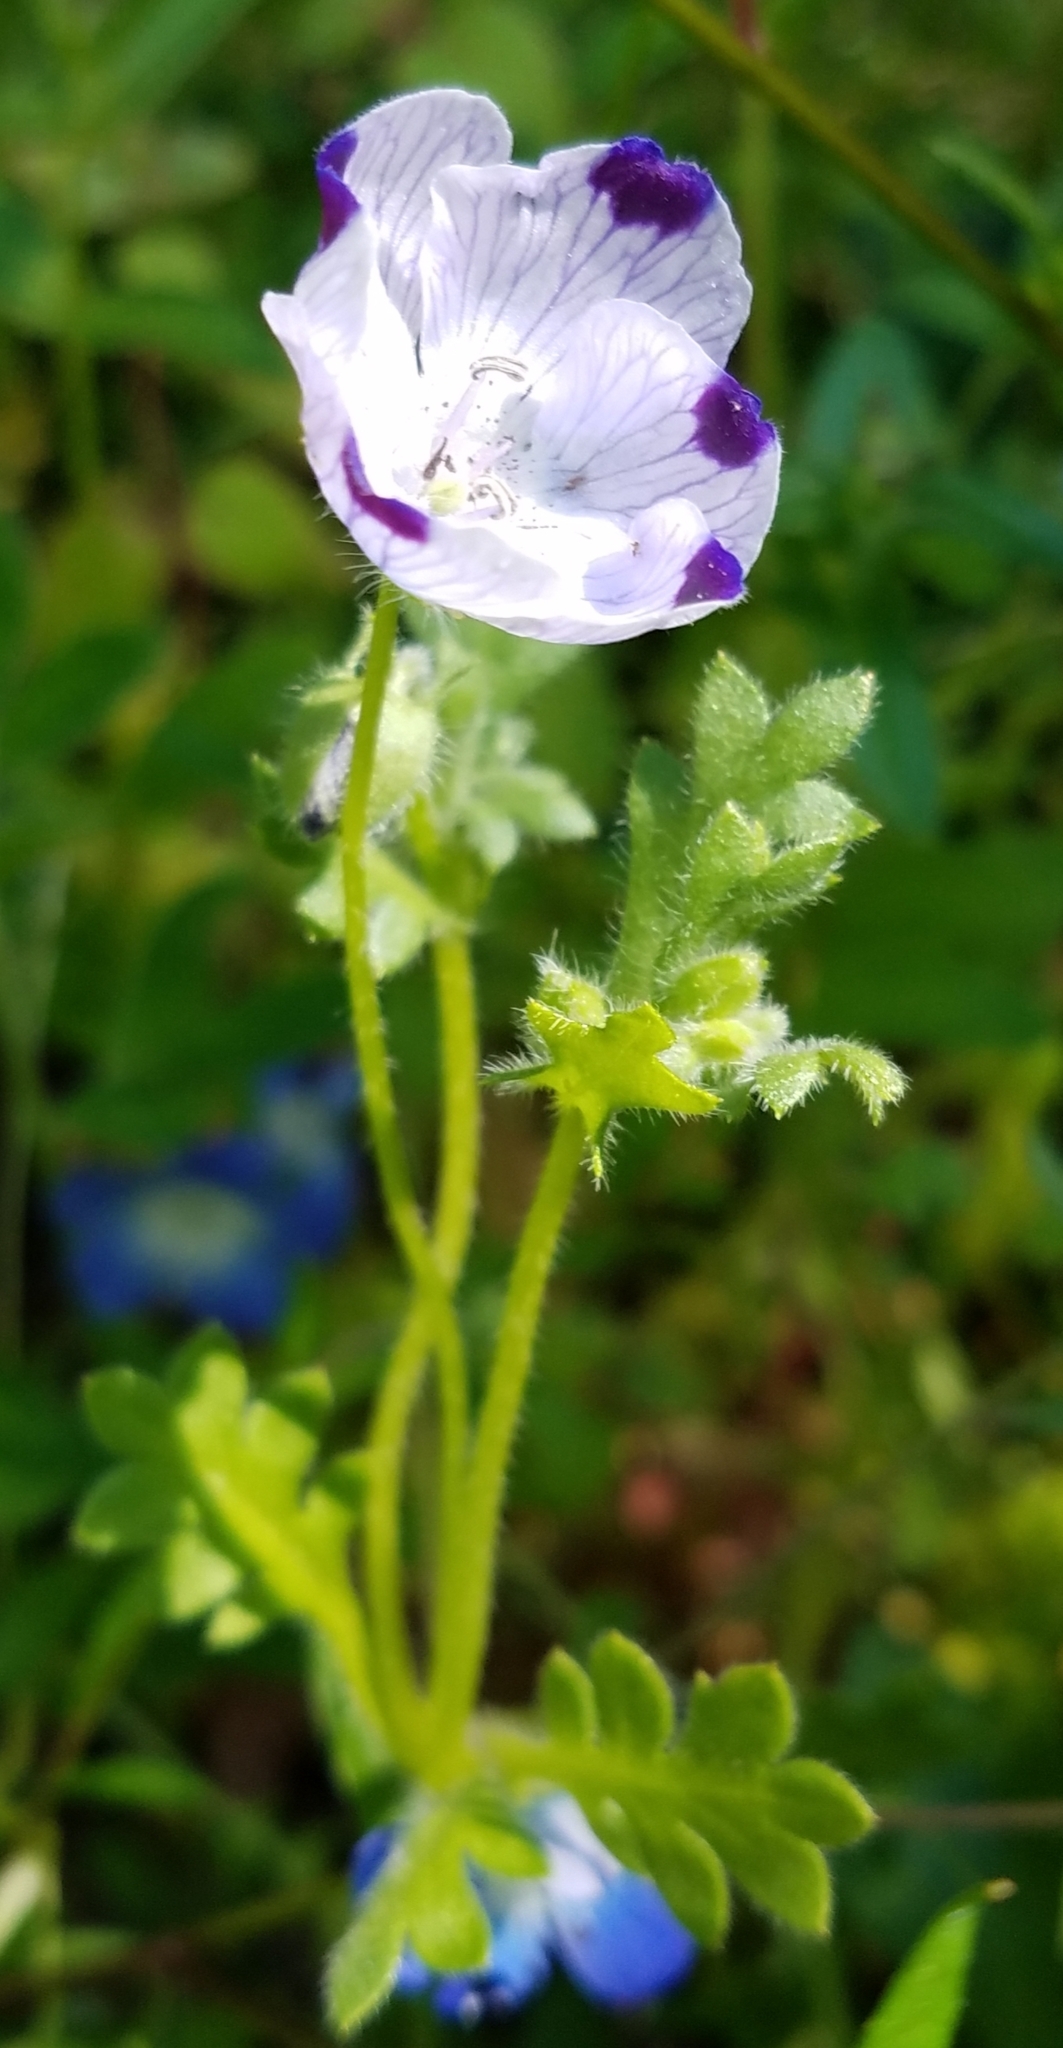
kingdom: Plantae
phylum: Tracheophyta
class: Magnoliopsida
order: Boraginales
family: Hydrophyllaceae
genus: Nemophila
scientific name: Nemophila maculata
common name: Fivespot
